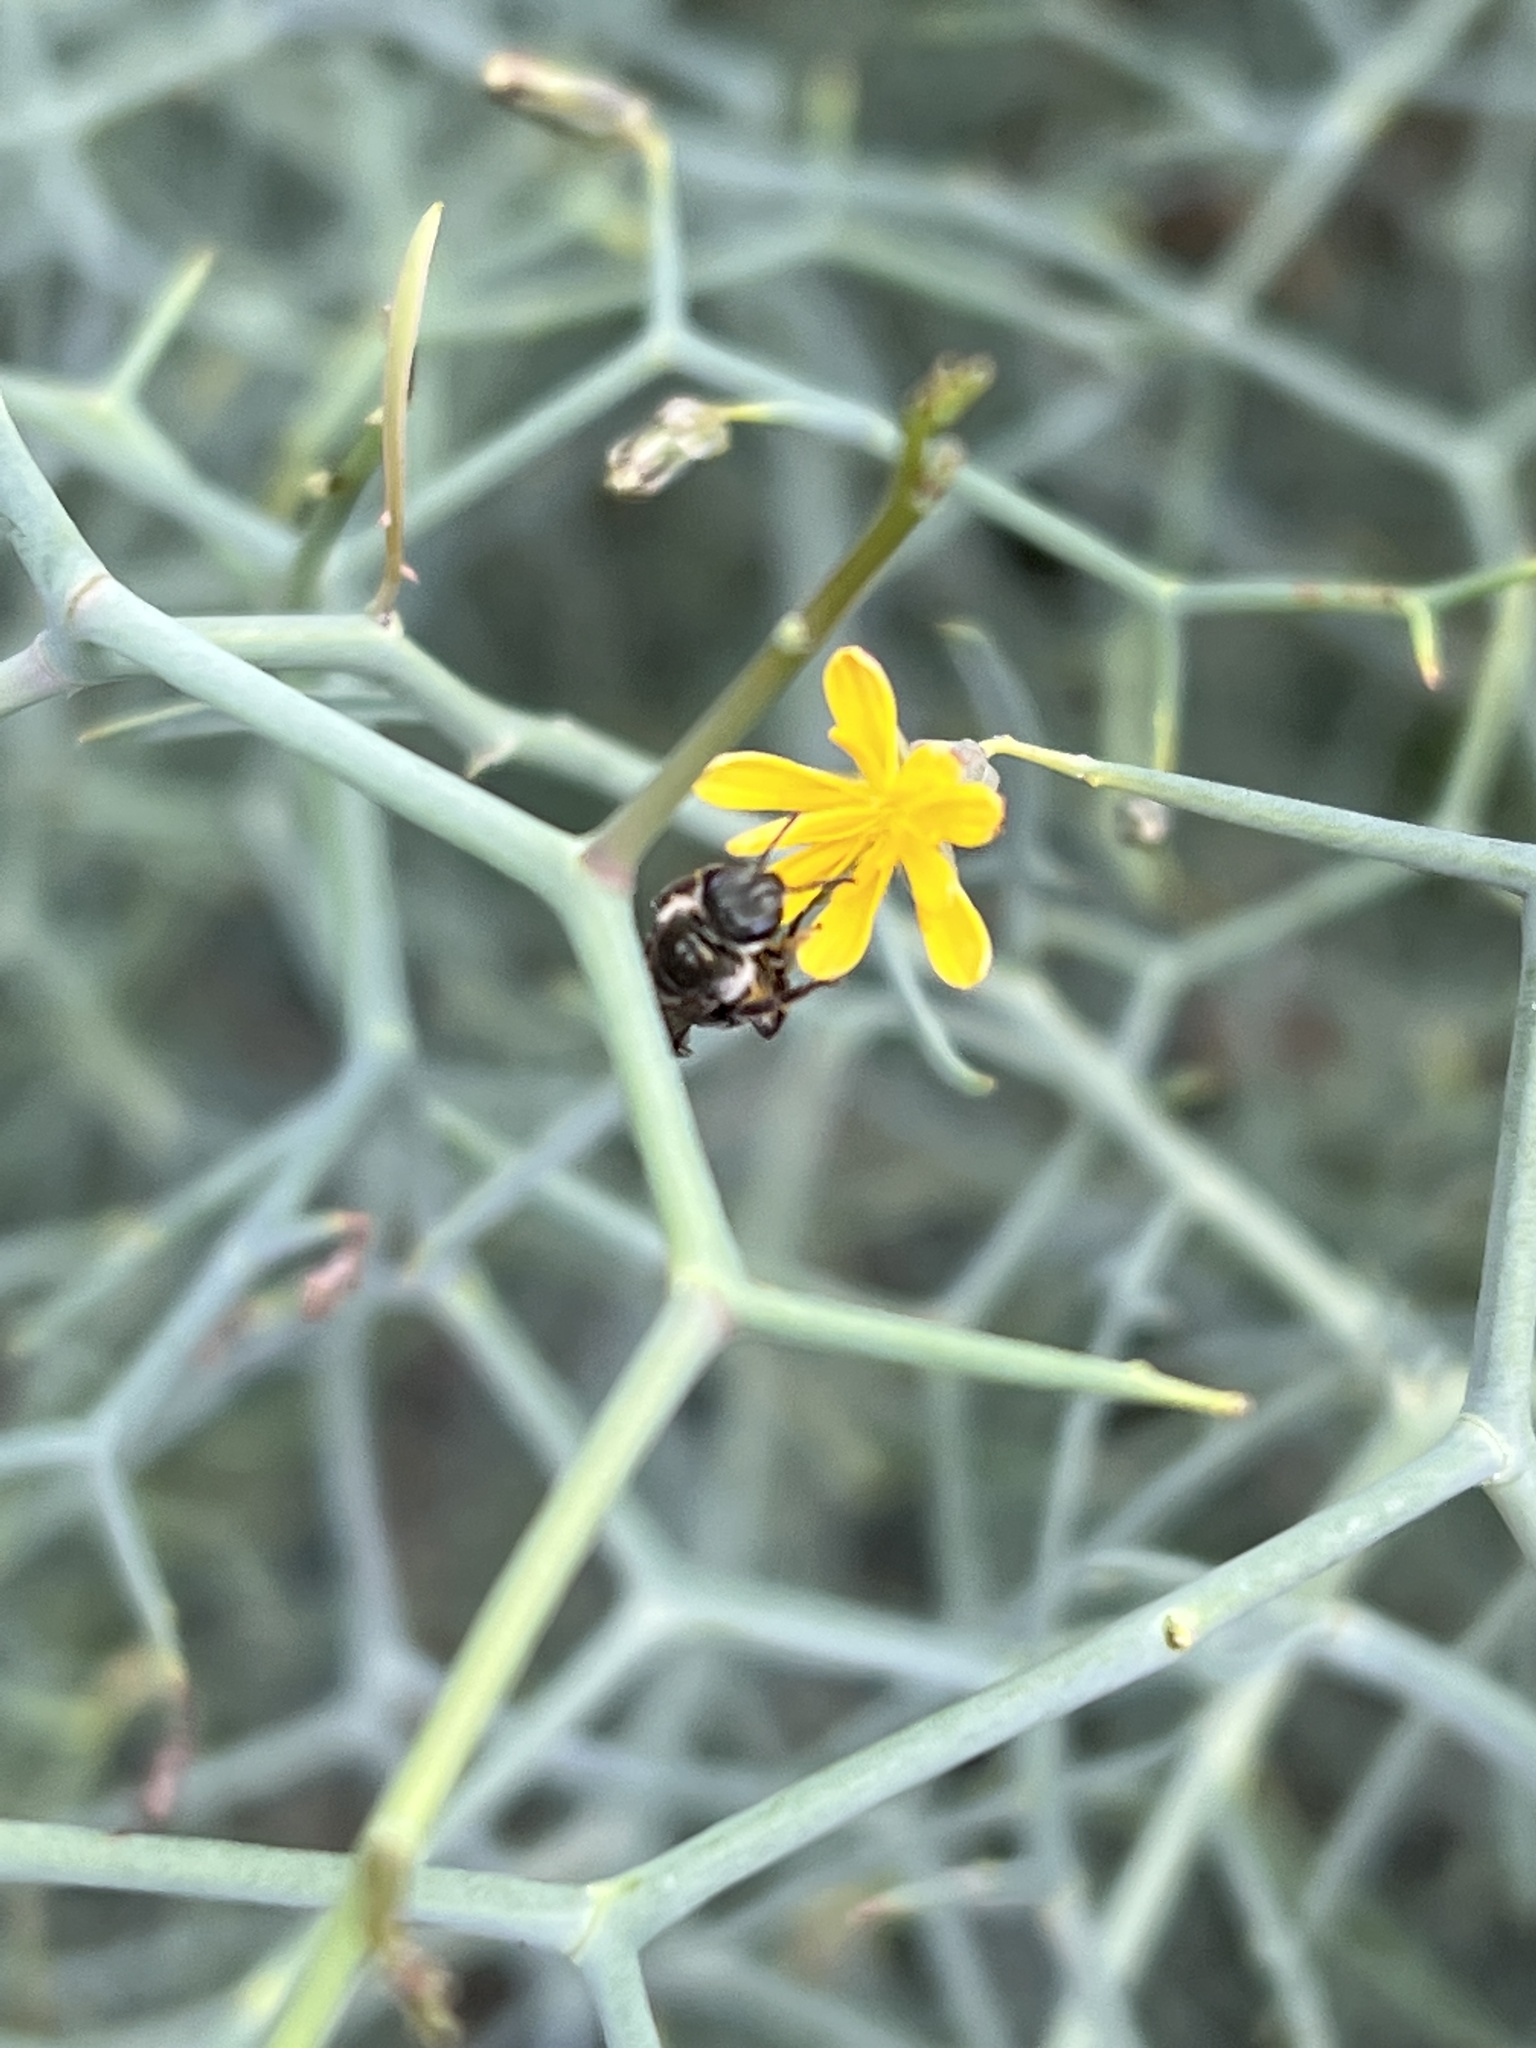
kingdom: Plantae
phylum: Tracheophyta
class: Magnoliopsida
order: Asterales
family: Asteraceae
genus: Launaea
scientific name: Launaea arborescens
